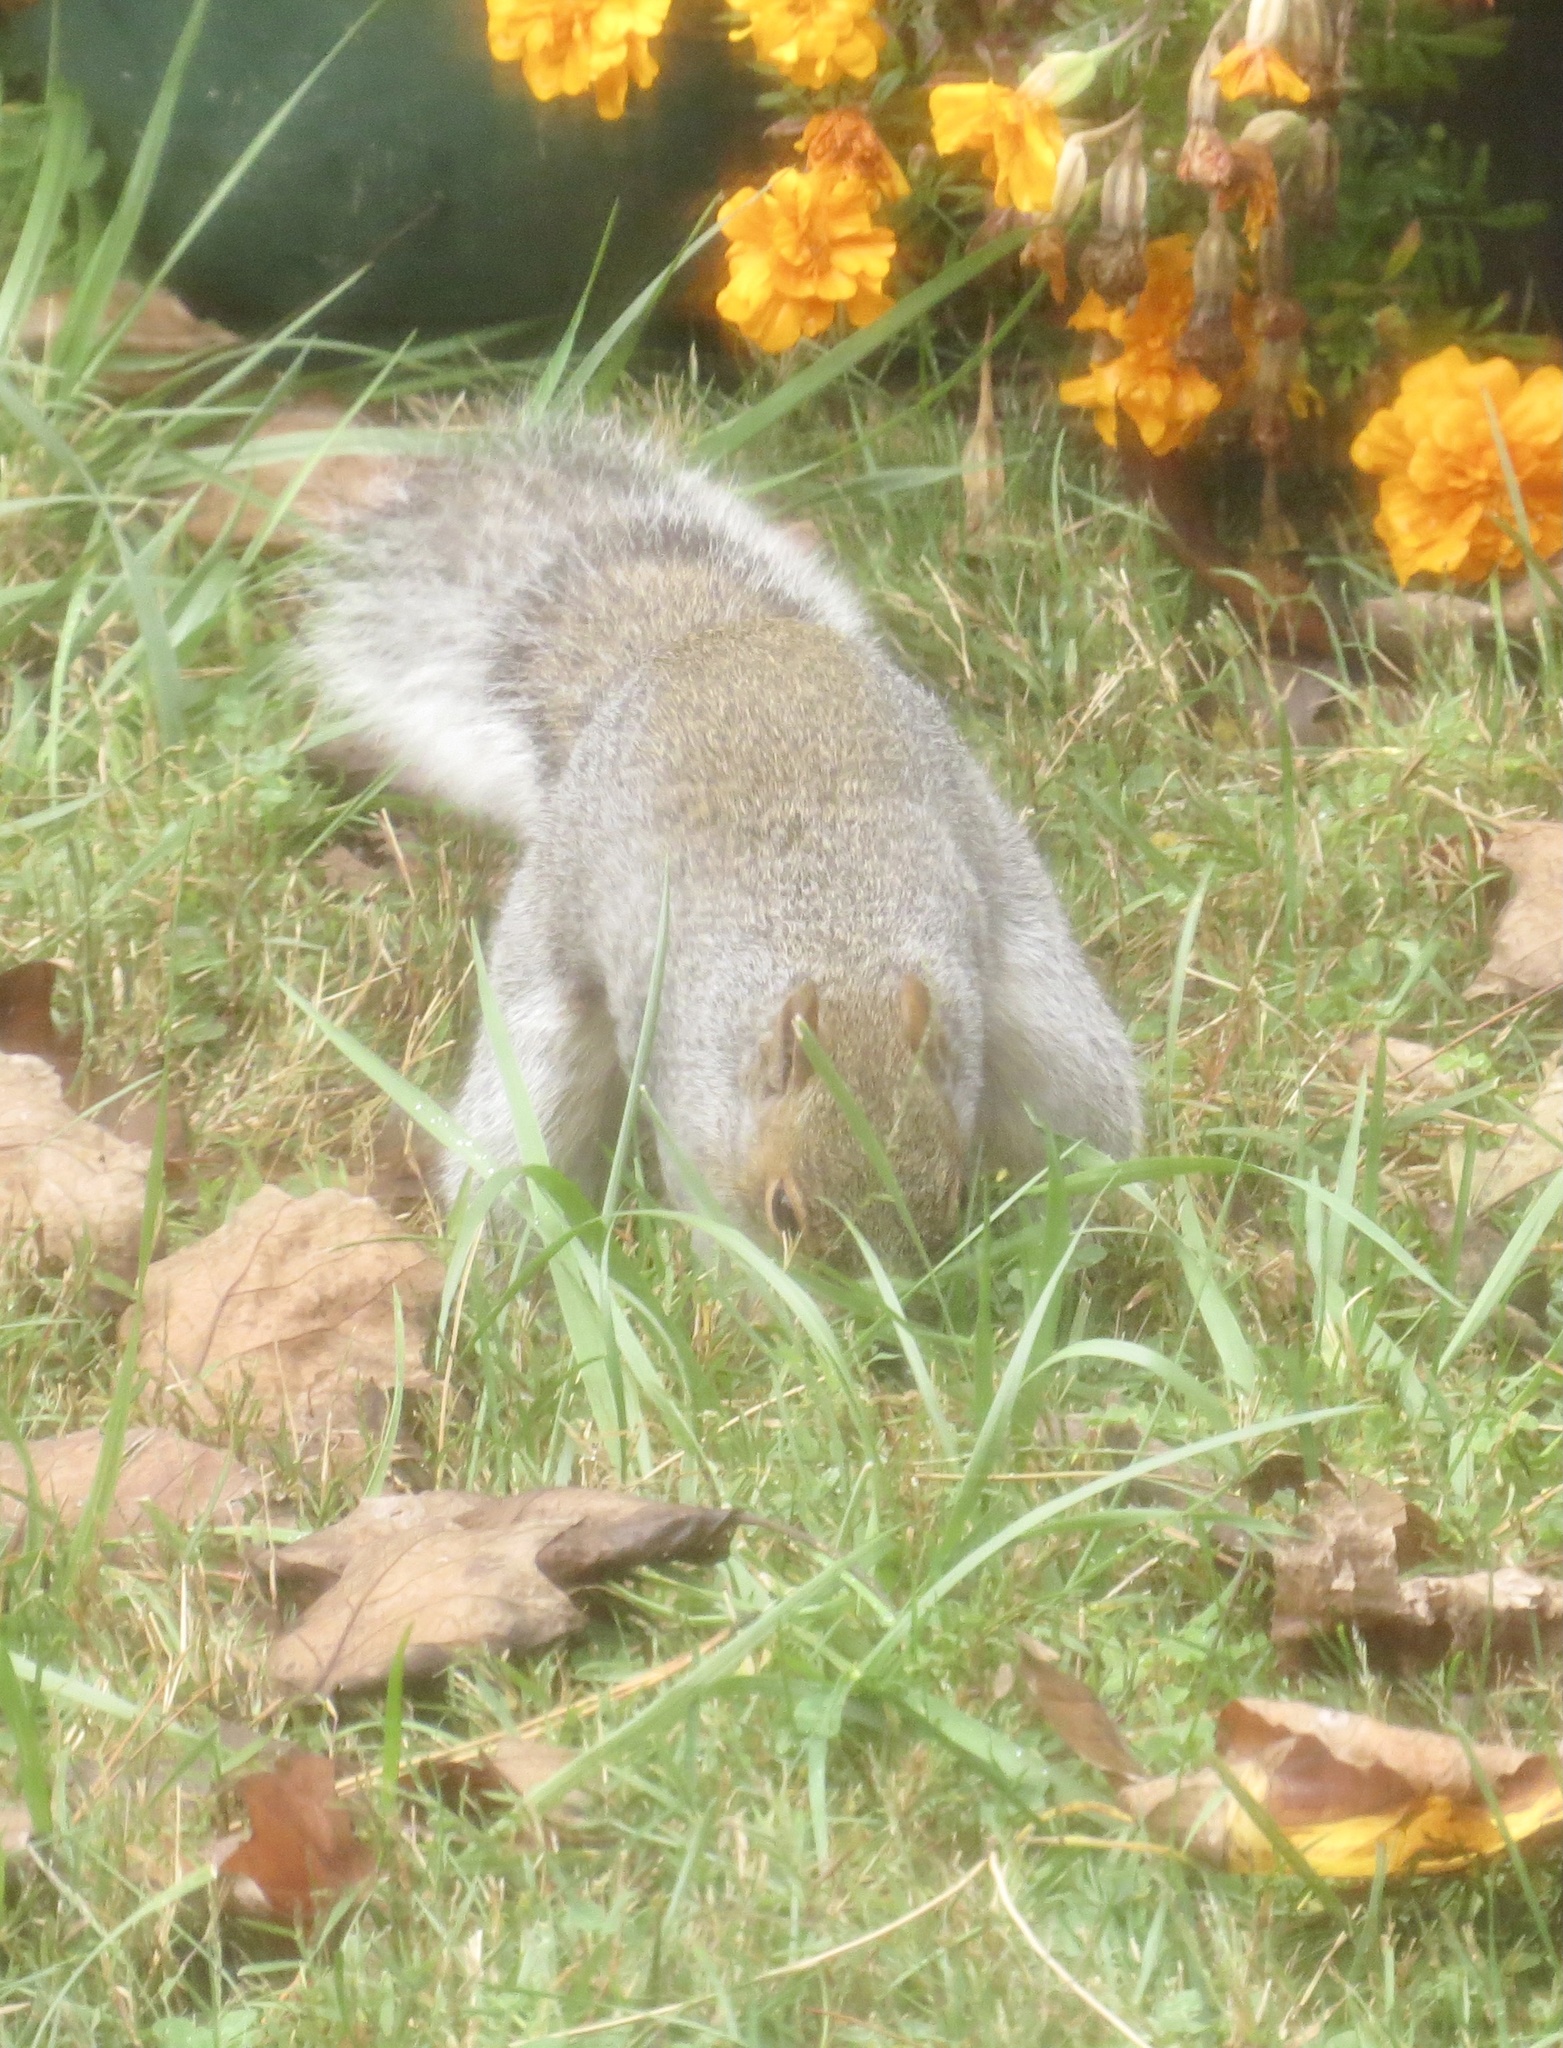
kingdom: Animalia
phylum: Chordata
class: Mammalia
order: Rodentia
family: Sciuridae
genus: Sciurus
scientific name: Sciurus carolinensis
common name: Eastern gray squirrel
